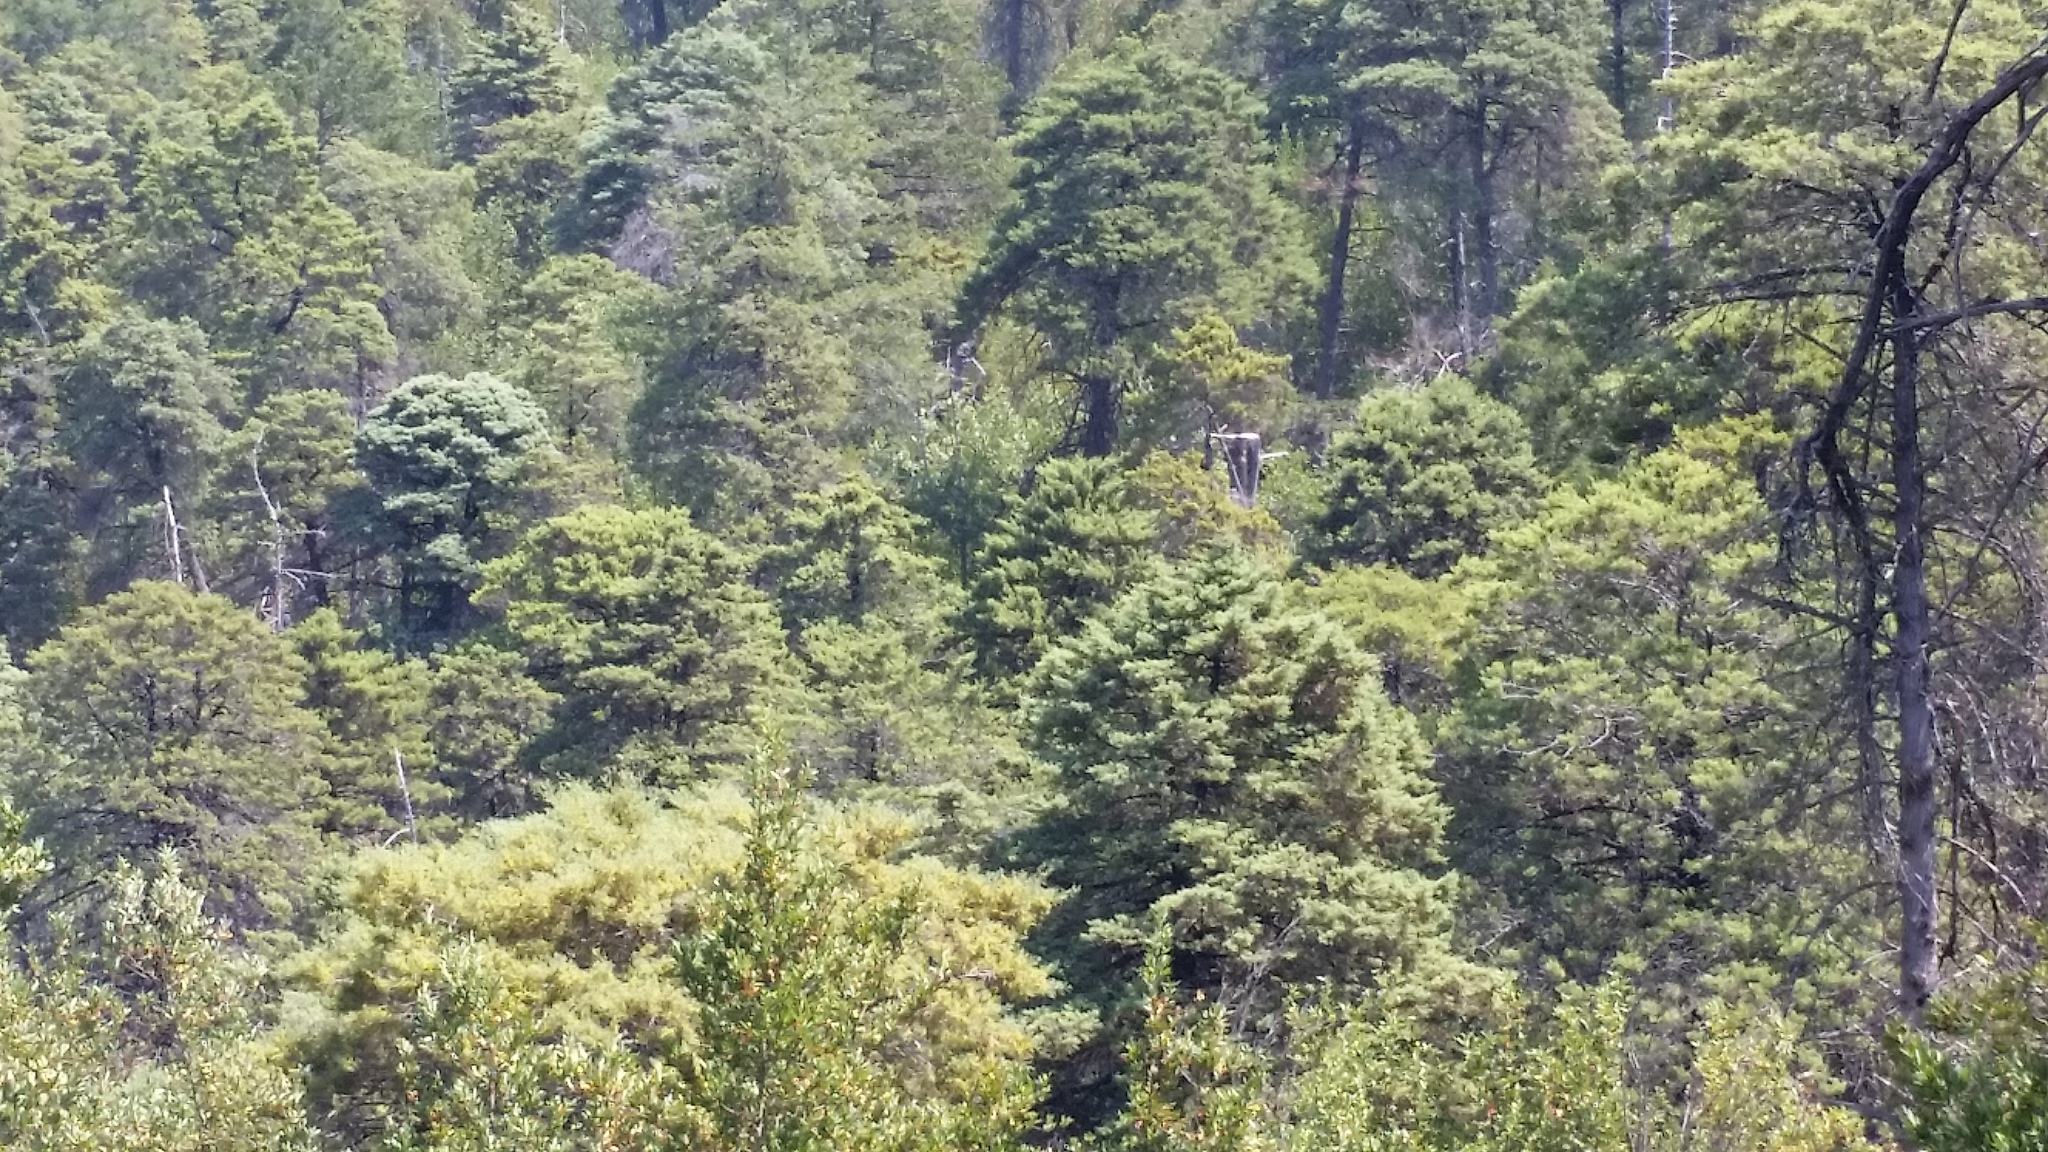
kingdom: Plantae
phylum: Tracheophyta
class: Pinopsida
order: Pinales
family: Cupressaceae
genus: Cupressus
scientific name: Cupressus sargentii
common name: Sargent cypress
